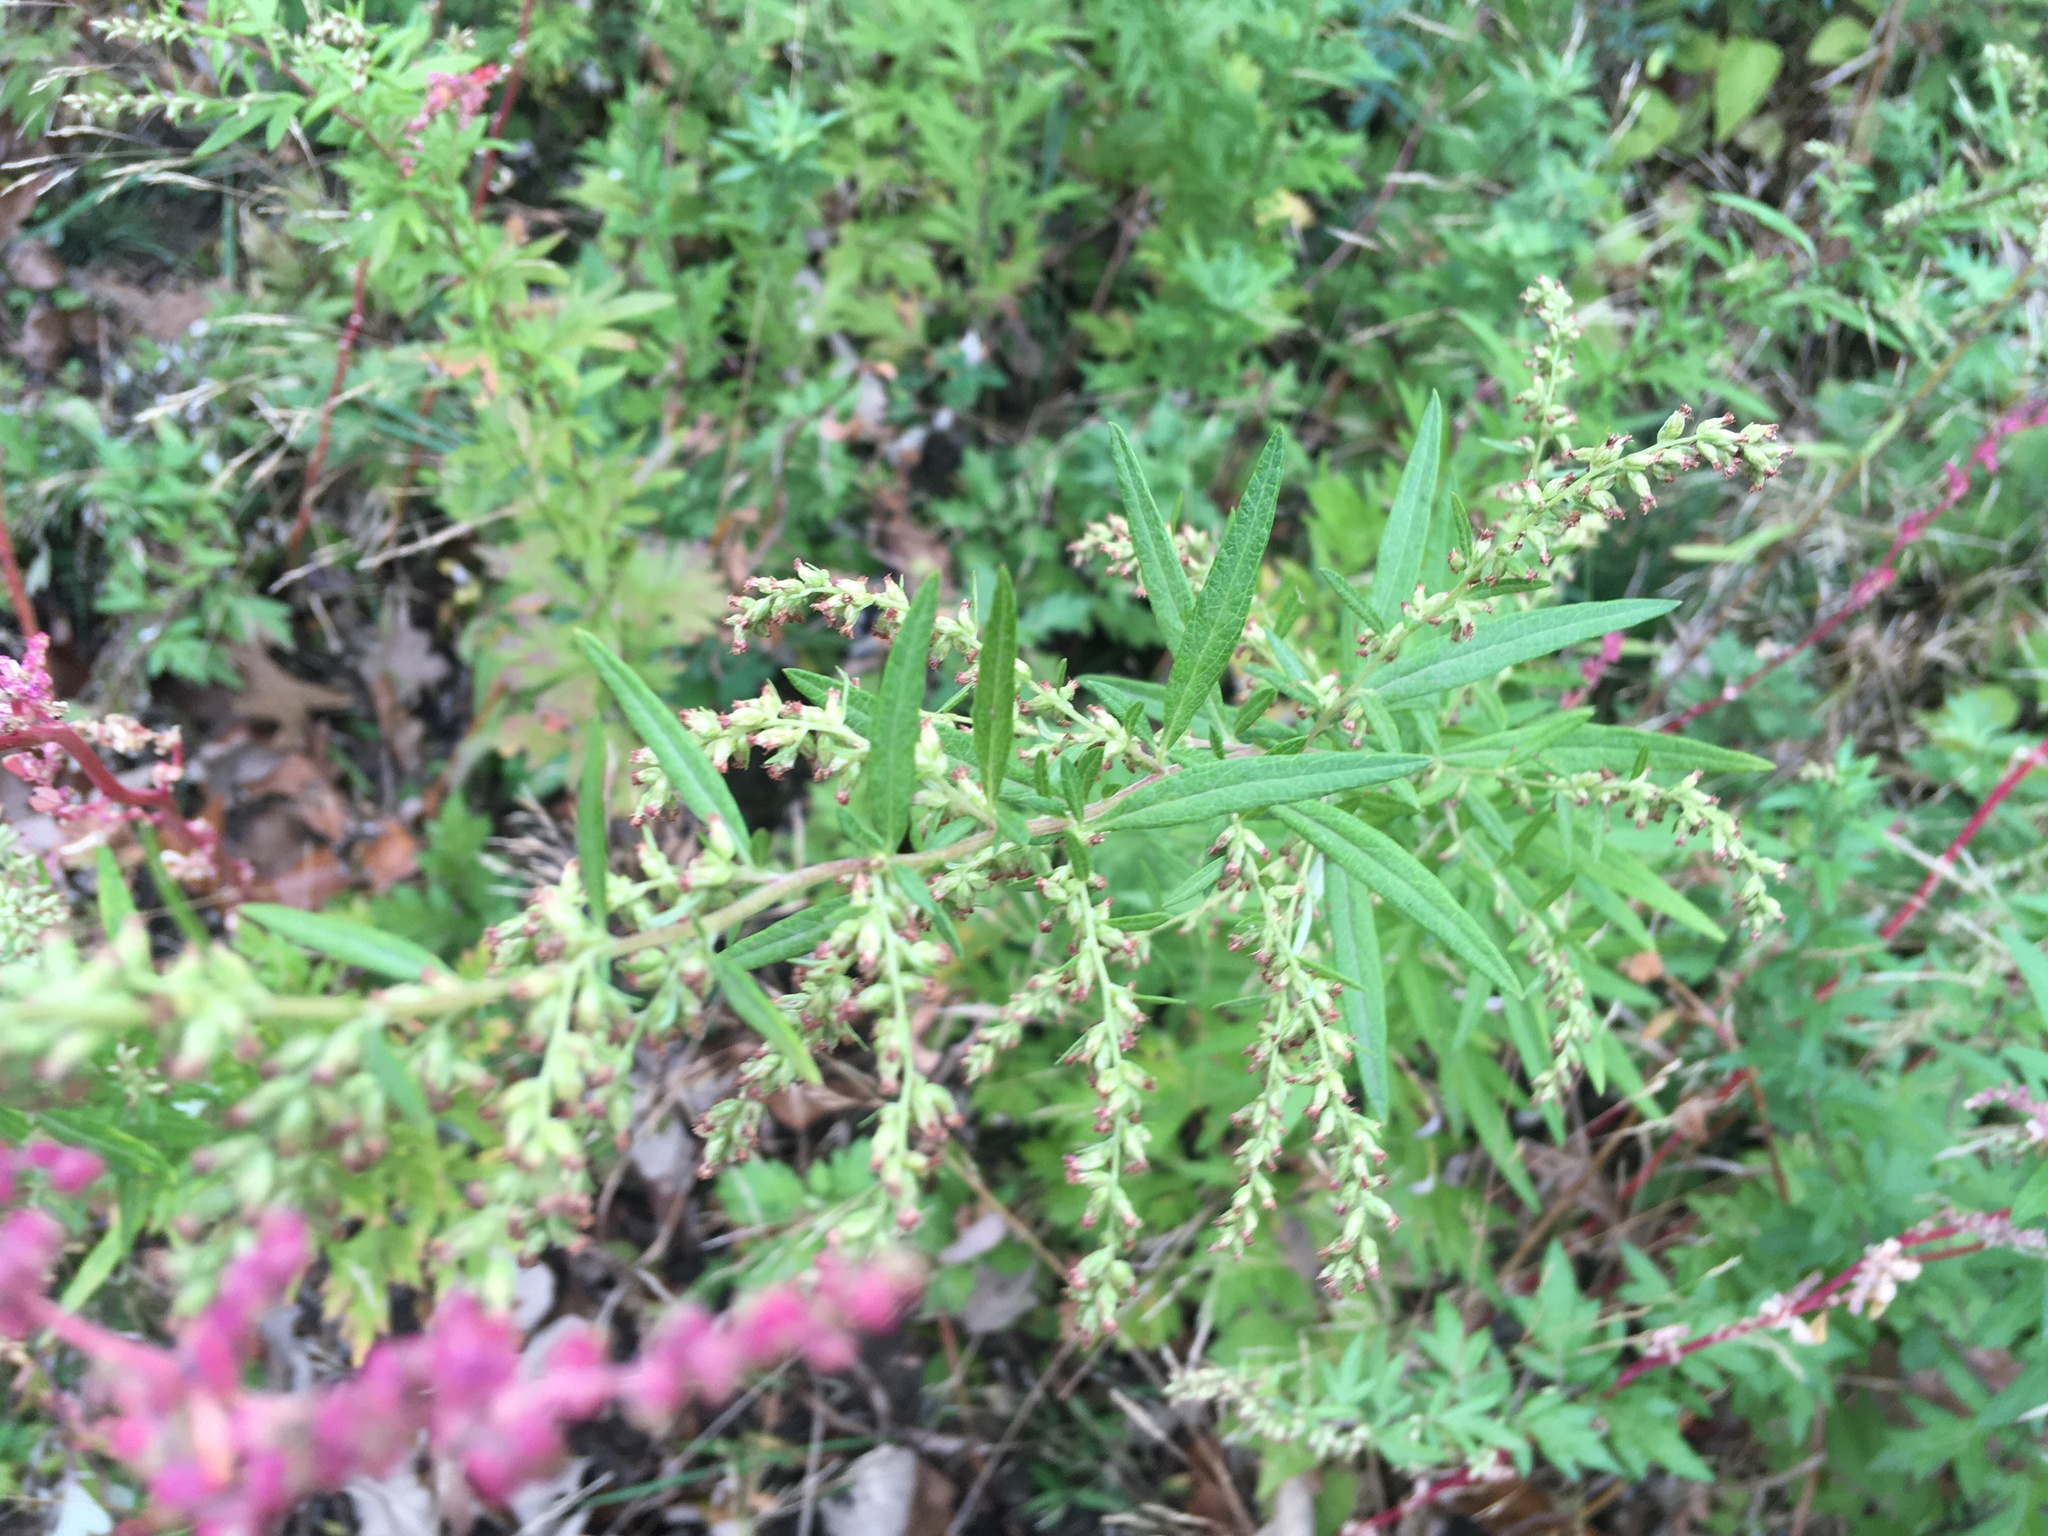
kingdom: Plantae
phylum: Tracheophyta
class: Magnoliopsida
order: Asterales
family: Asteraceae
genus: Artemisia
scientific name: Artemisia vulgaris
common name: Mugwort
